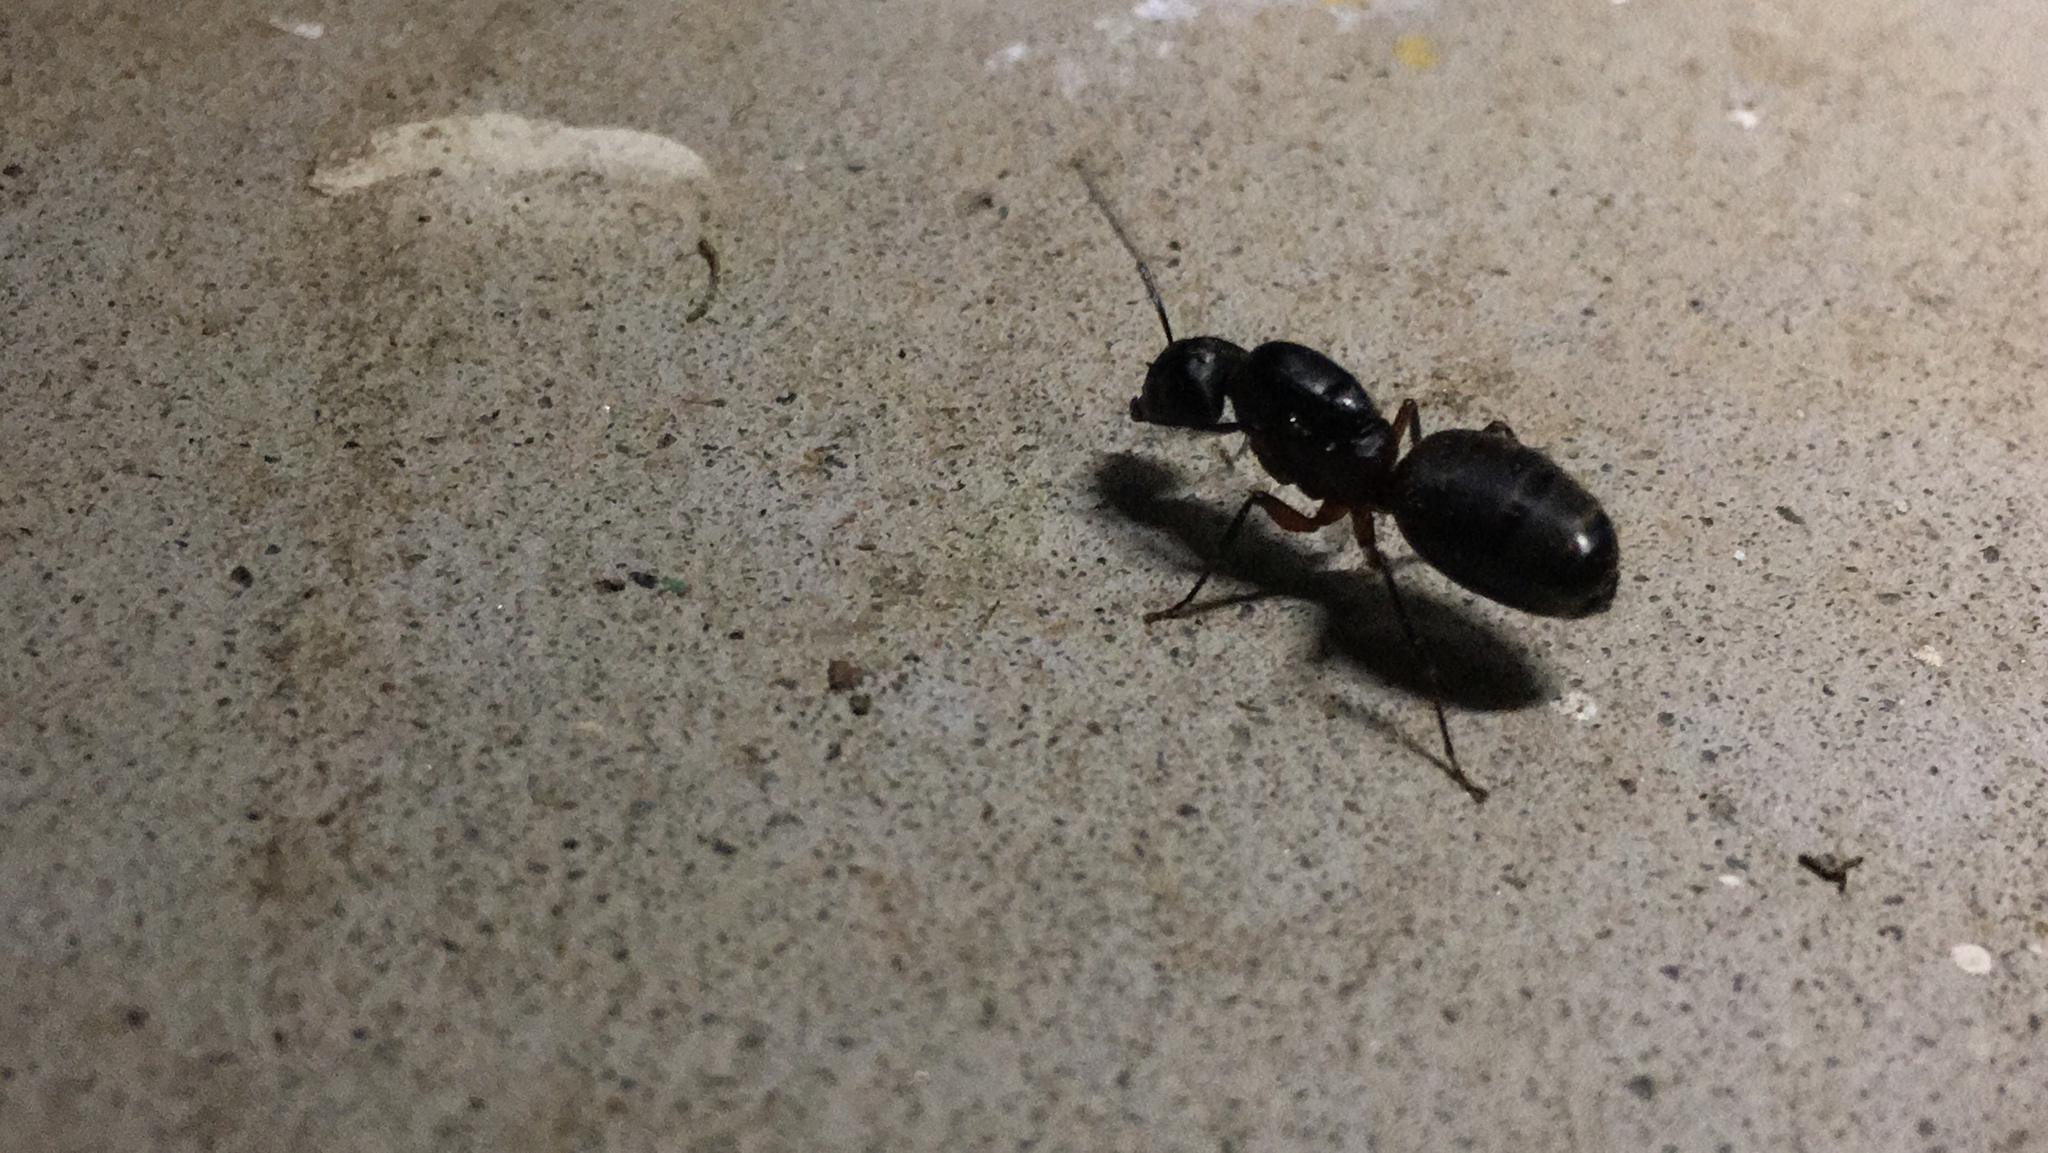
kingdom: Animalia
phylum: Arthropoda
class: Insecta
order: Hymenoptera
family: Formicidae
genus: Camponotus
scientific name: Camponotus chromaiodes
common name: Red carpenter ant
